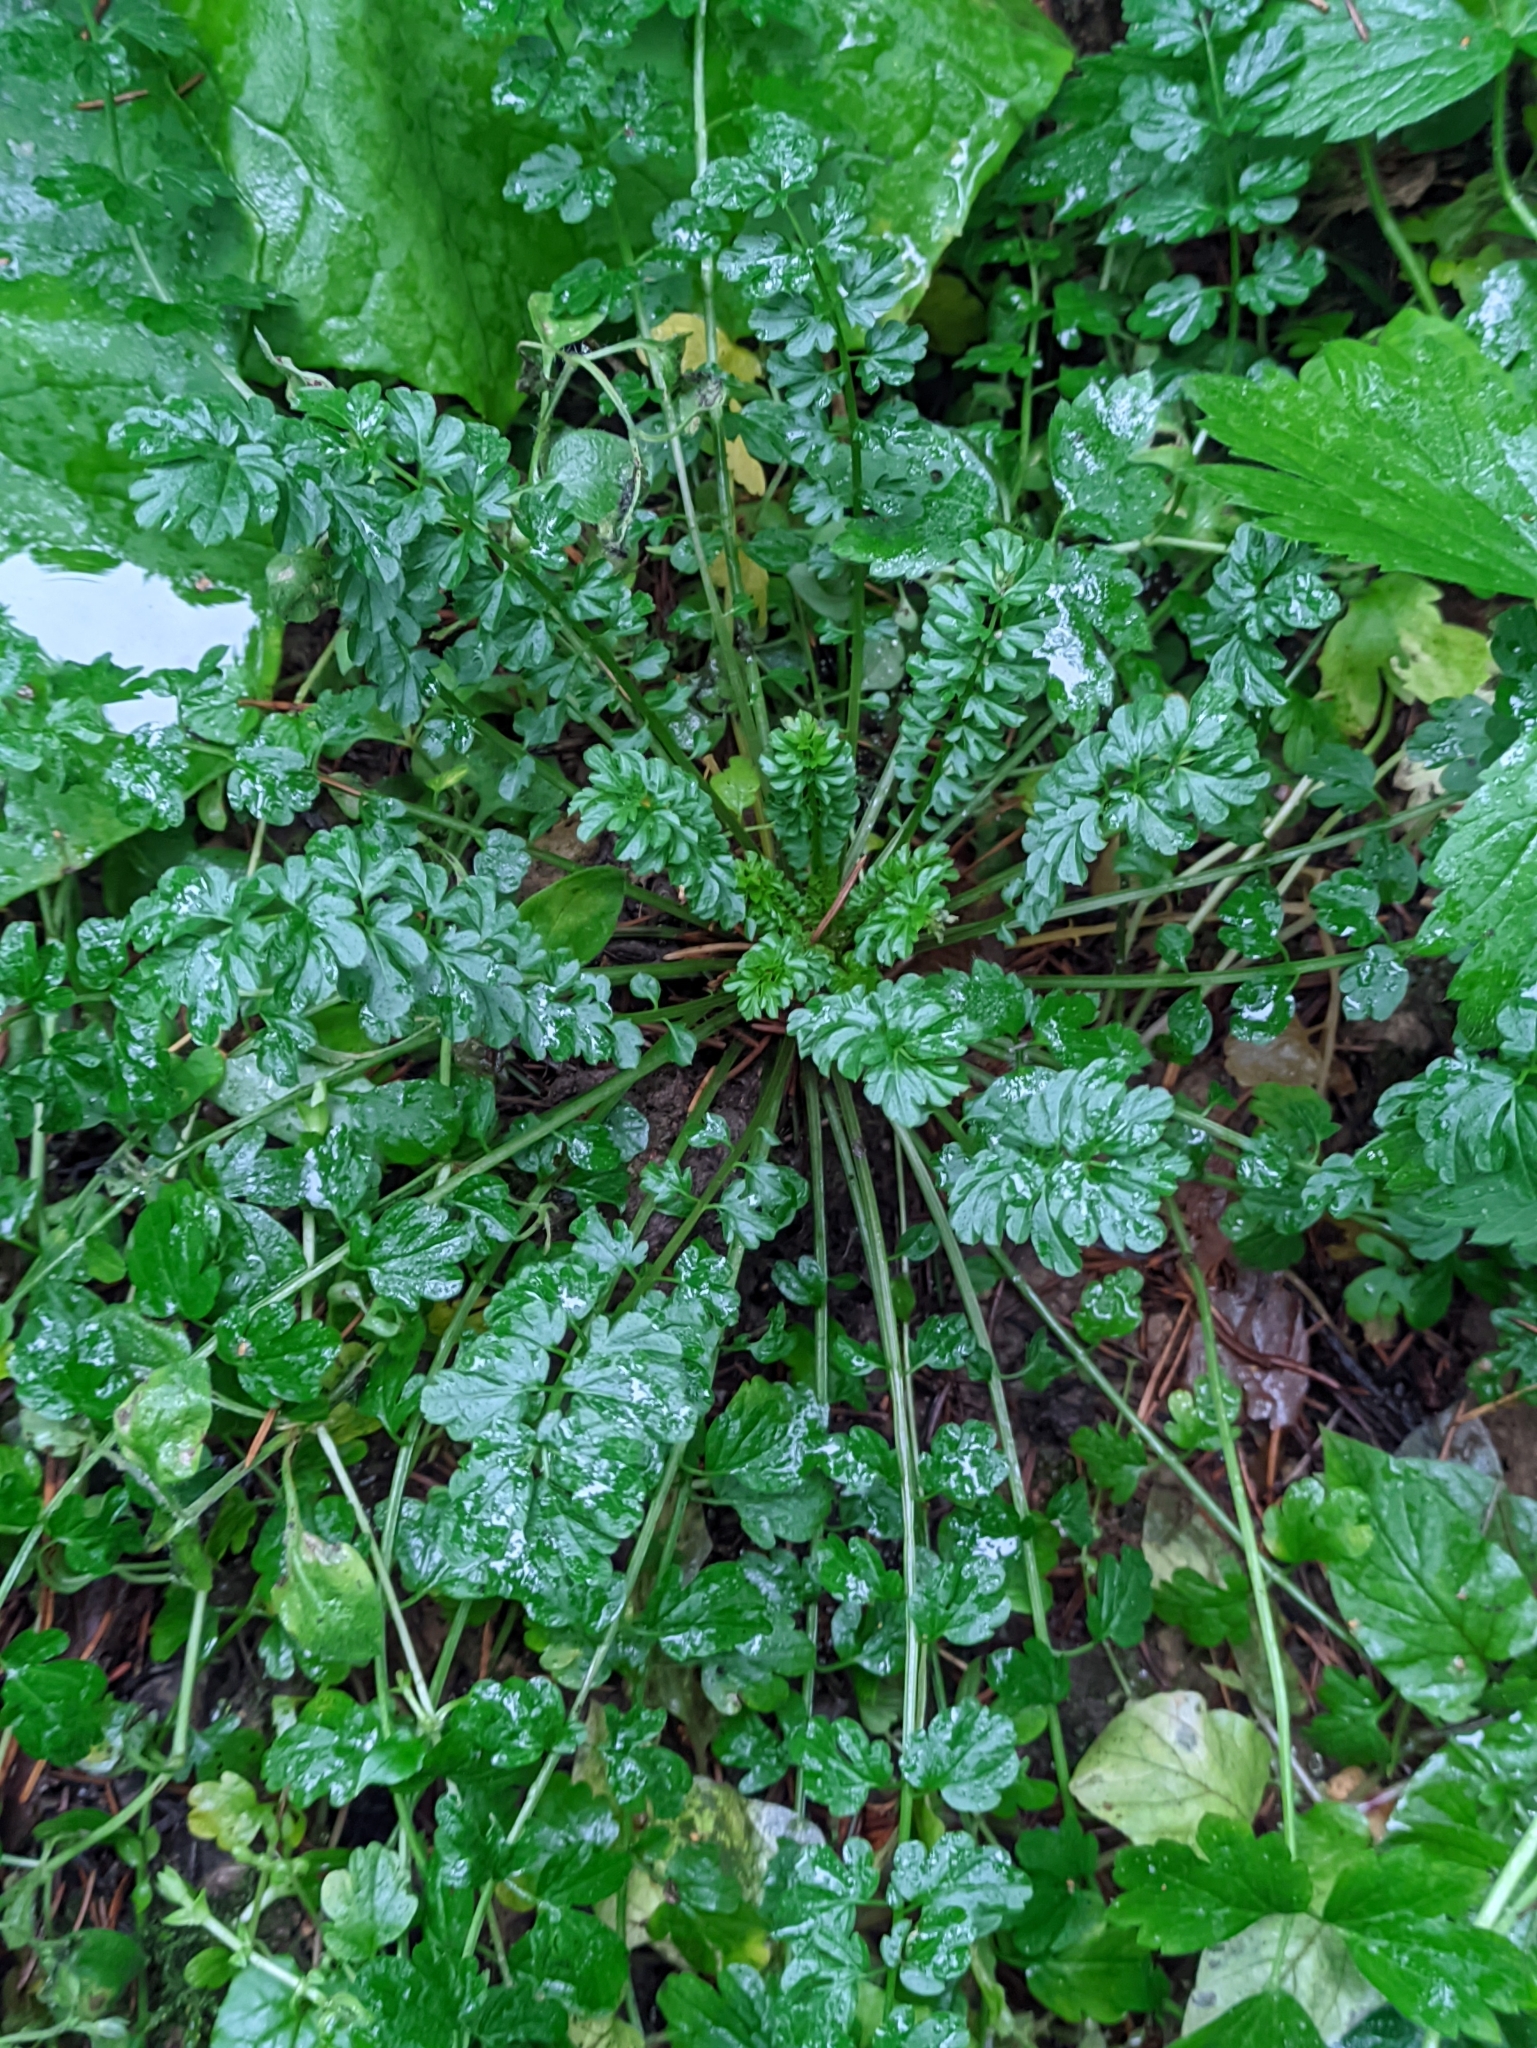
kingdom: Plantae
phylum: Tracheophyta
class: Magnoliopsida
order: Brassicales
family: Brassicaceae
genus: Cardamine
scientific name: Cardamine impatiens
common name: Narrow-leaved bitter-cress
